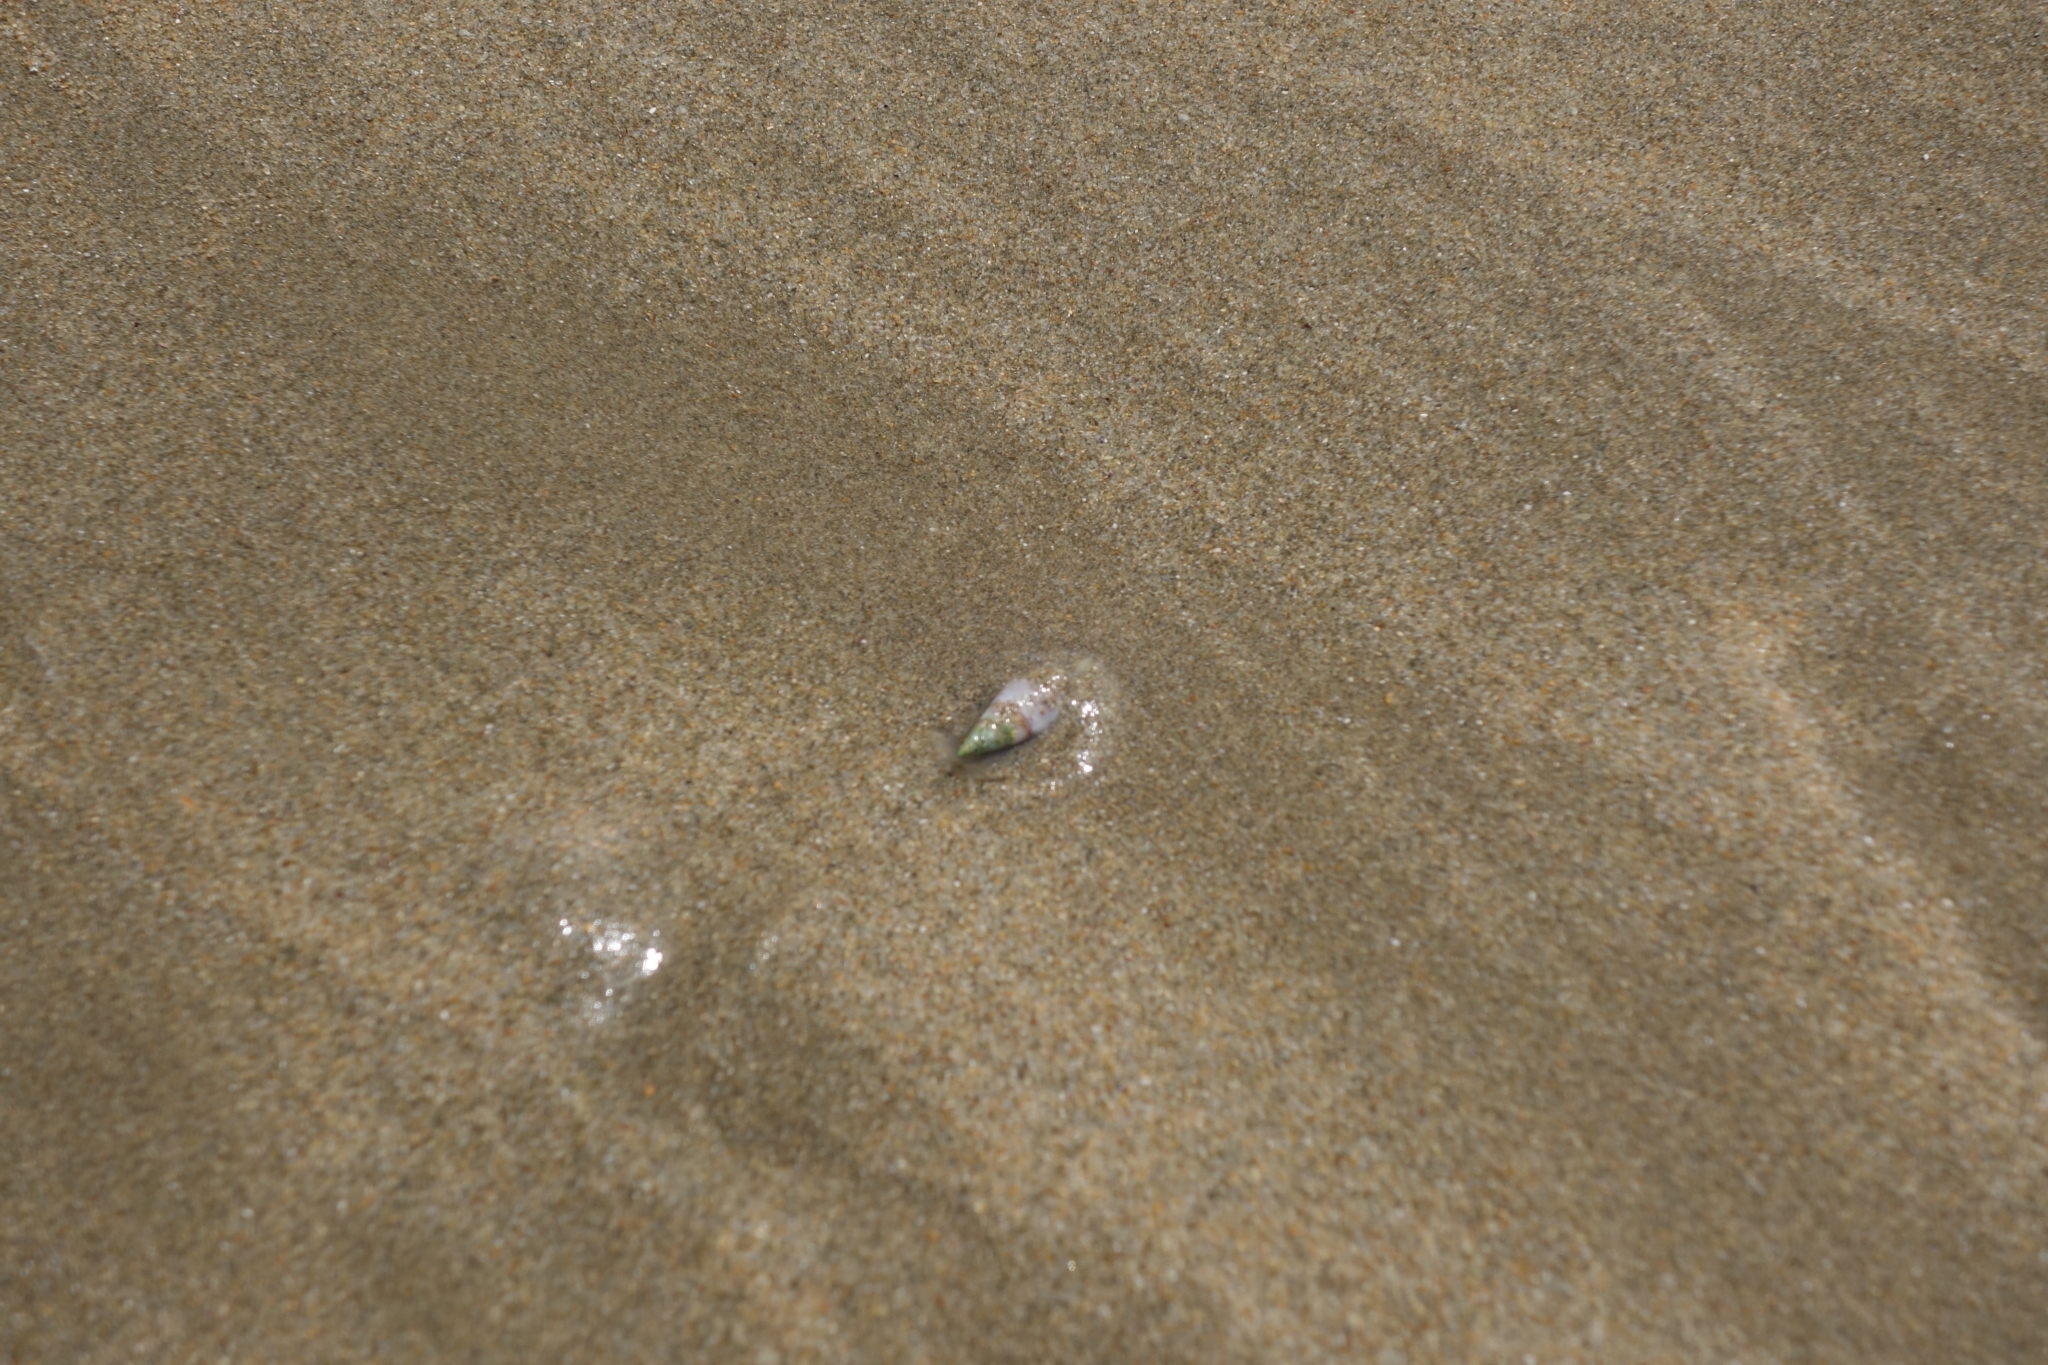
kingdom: Animalia
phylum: Mollusca
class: Gastropoda
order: Neogastropoda
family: Nassariidae
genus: Bullia
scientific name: Bullia rhodostoma
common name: Smooth plough shell
